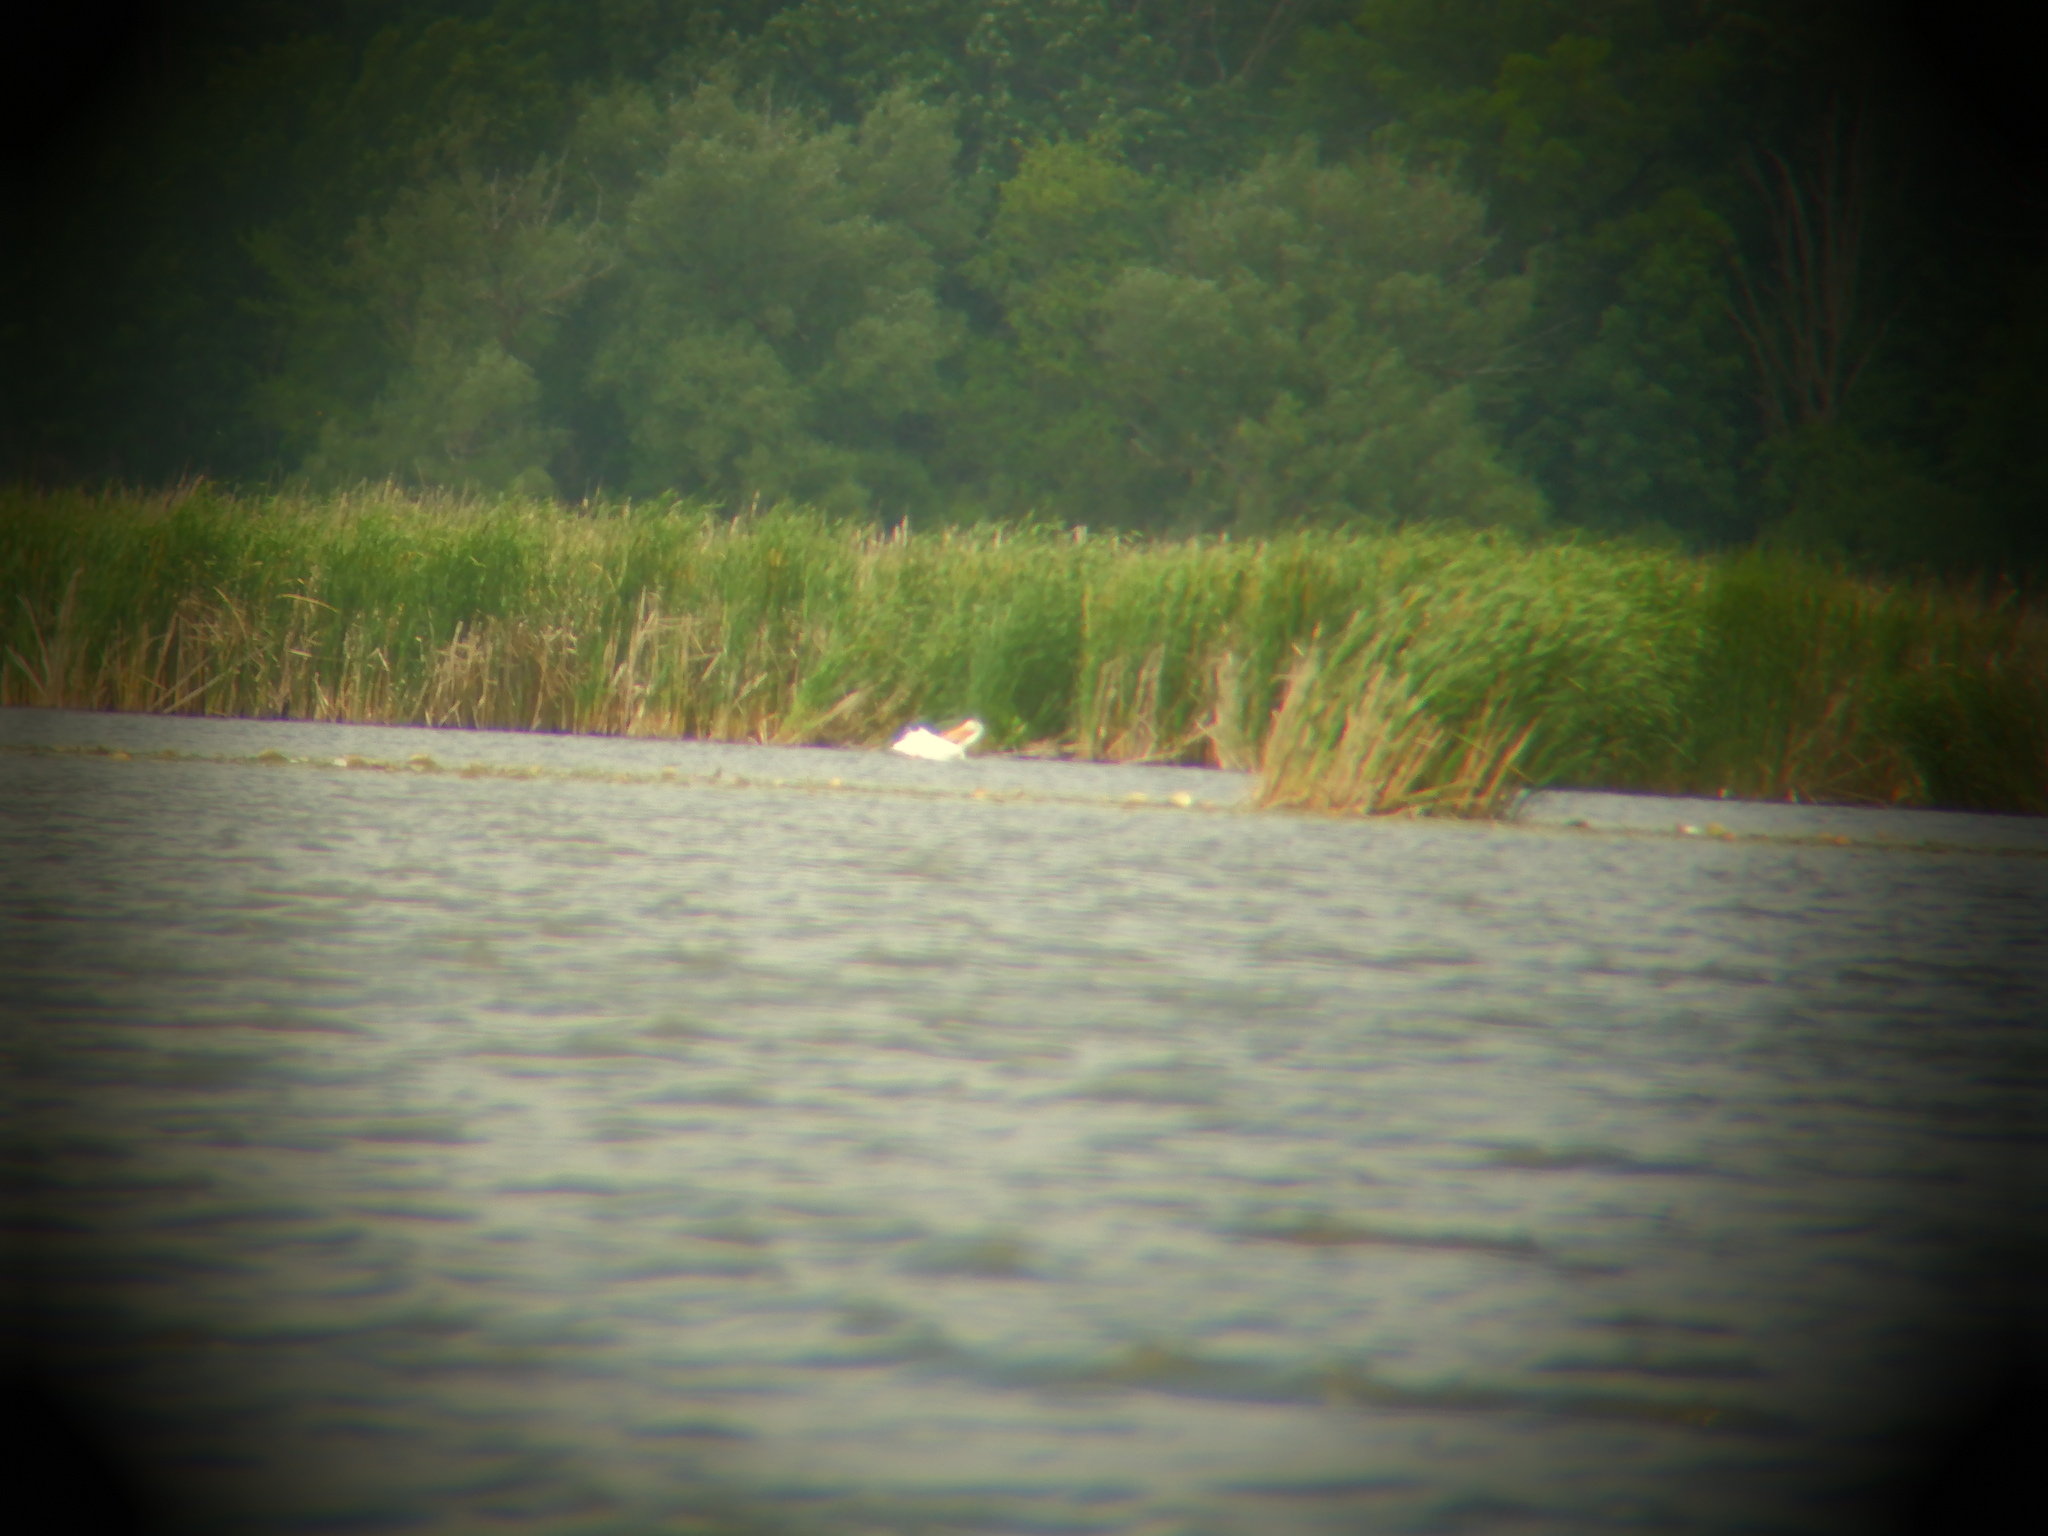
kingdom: Animalia
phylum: Chordata
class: Aves
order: Pelecaniformes
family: Pelecanidae
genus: Pelecanus
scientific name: Pelecanus erythrorhynchos
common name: American white pelican
